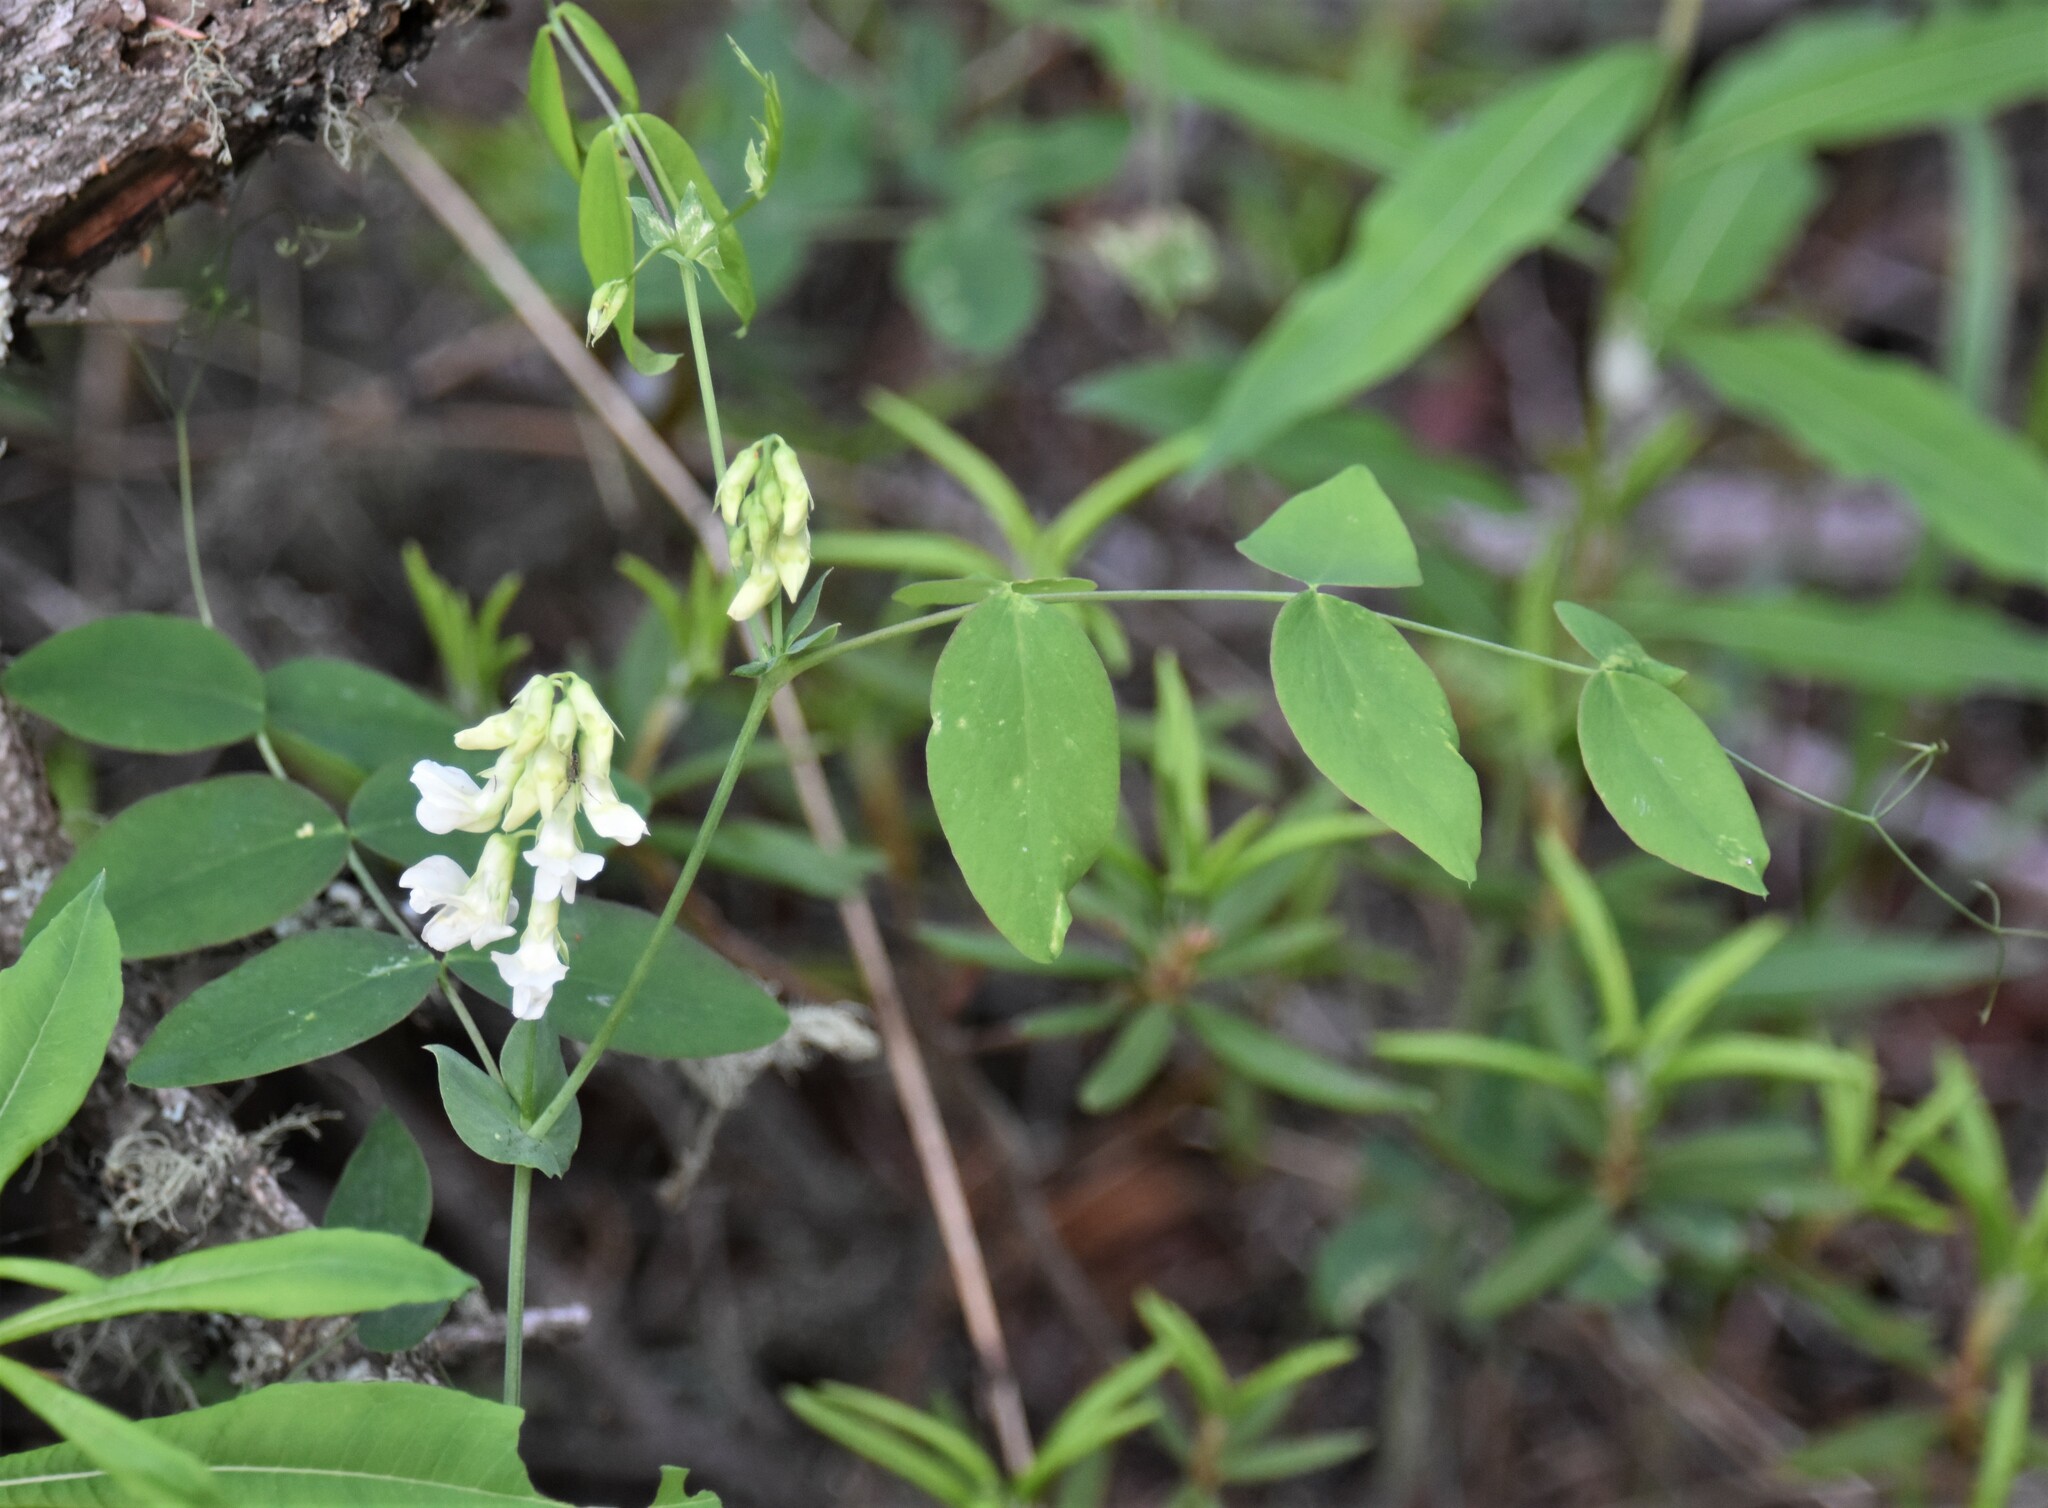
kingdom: Plantae
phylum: Tracheophyta
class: Magnoliopsida
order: Fabales
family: Fabaceae
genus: Lathyrus
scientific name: Lathyrus ochroleucus
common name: Pale vetchling
